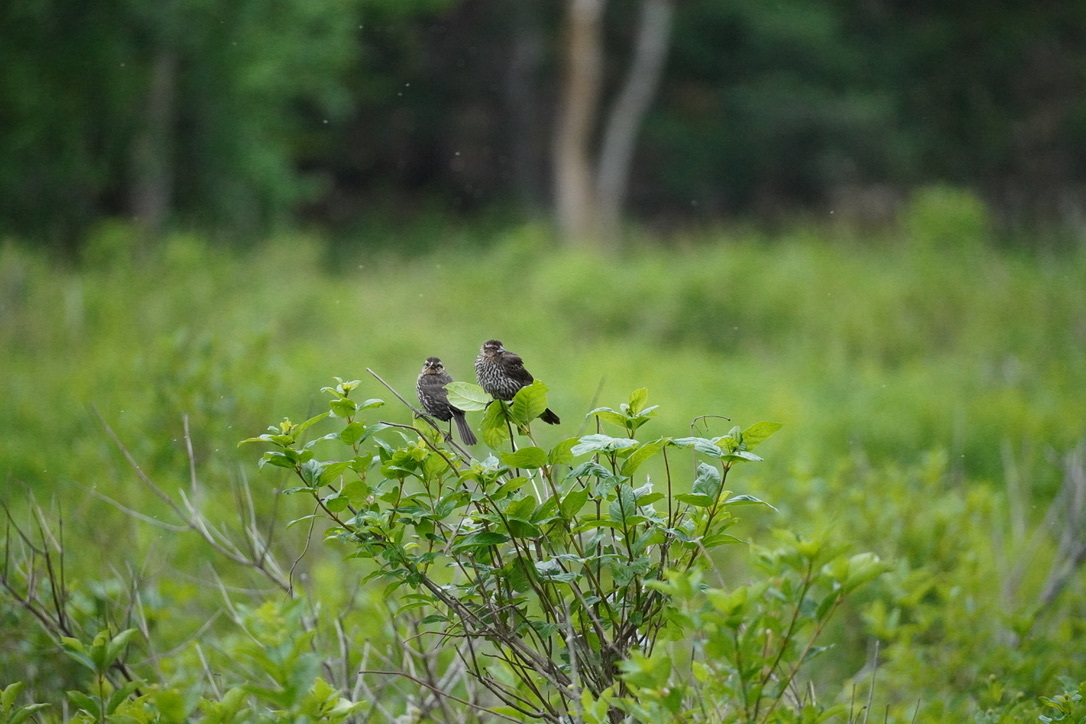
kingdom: Animalia
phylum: Chordata
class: Aves
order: Passeriformes
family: Icteridae
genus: Agelaius
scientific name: Agelaius phoeniceus
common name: Red-winged blackbird
